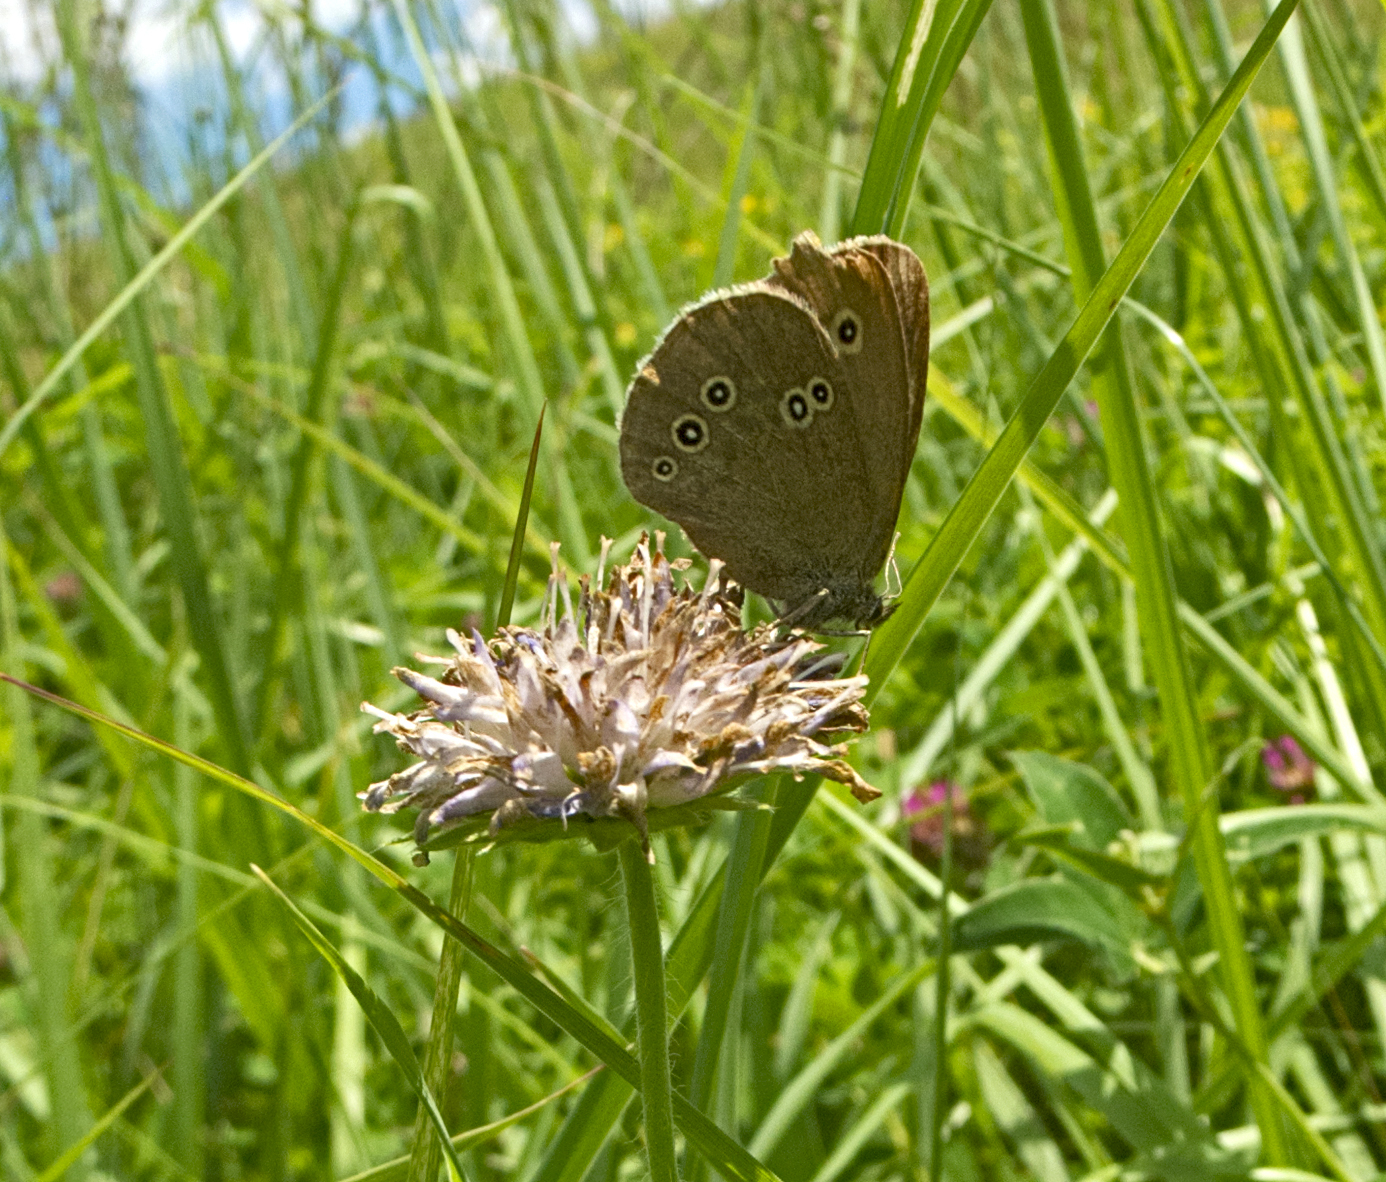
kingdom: Animalia
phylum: Arthropoda
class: Insecta
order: Lepidoptera
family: Nymphalidae
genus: Aphantopus
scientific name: Aphantopus hyperantus
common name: Ringlet
